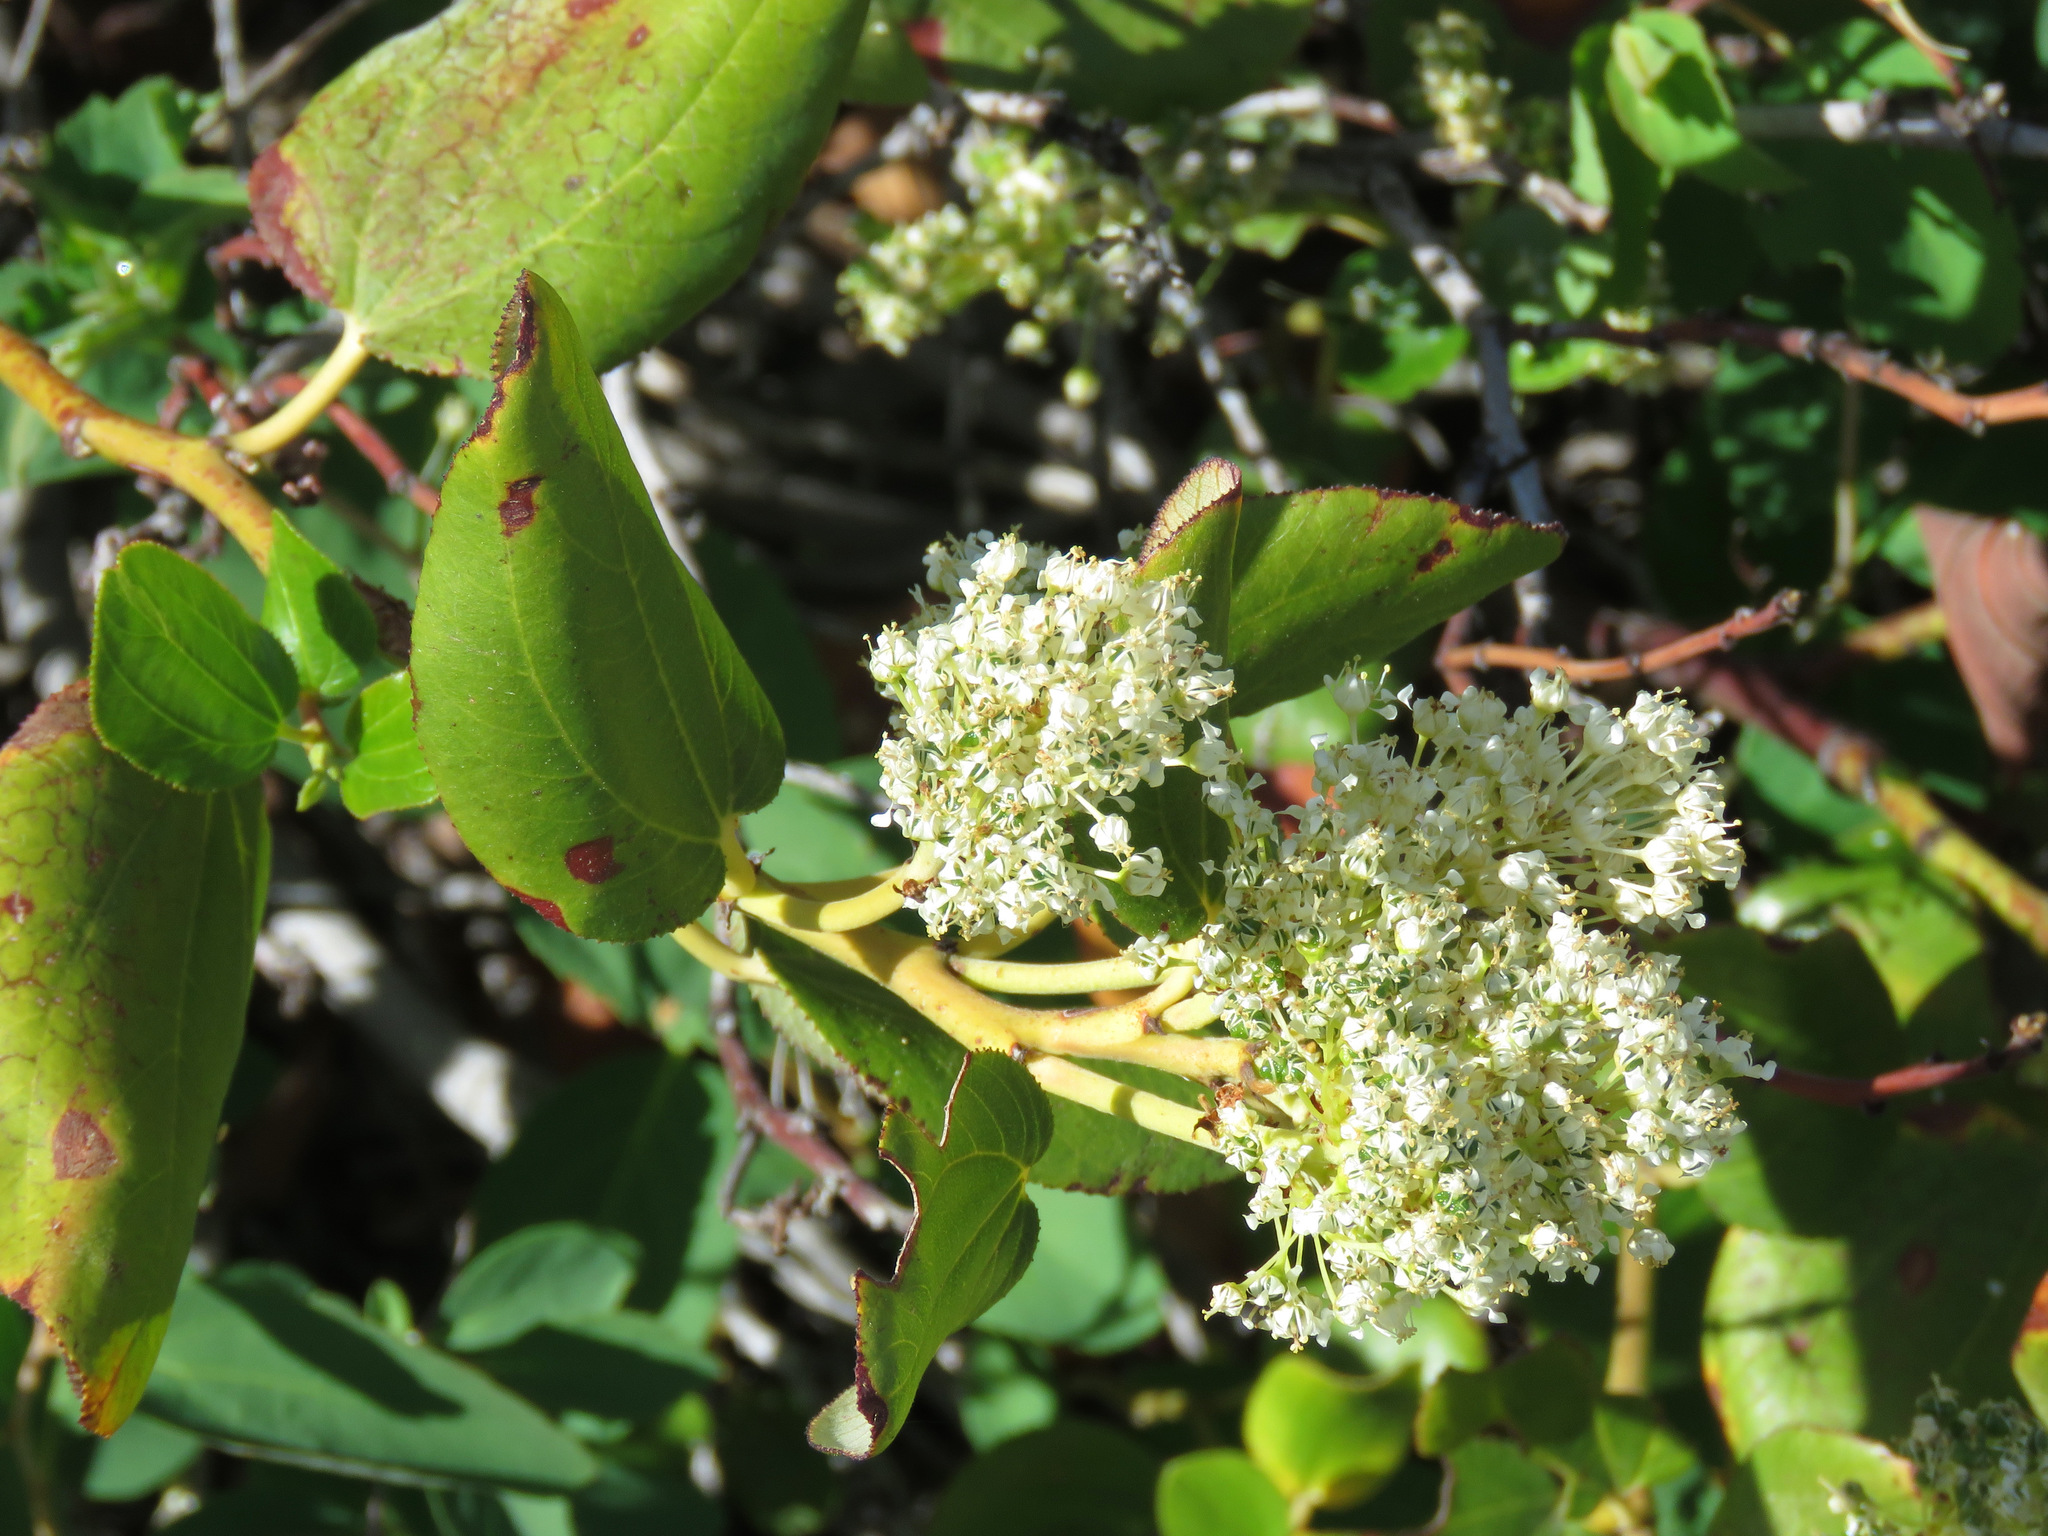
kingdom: Plantae
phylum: Tracheophyta
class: Magnoliopsida
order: Rosales
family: Rhamnaceae
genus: Ceanothus
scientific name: Ceanothus velutinus
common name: Snowbrush
